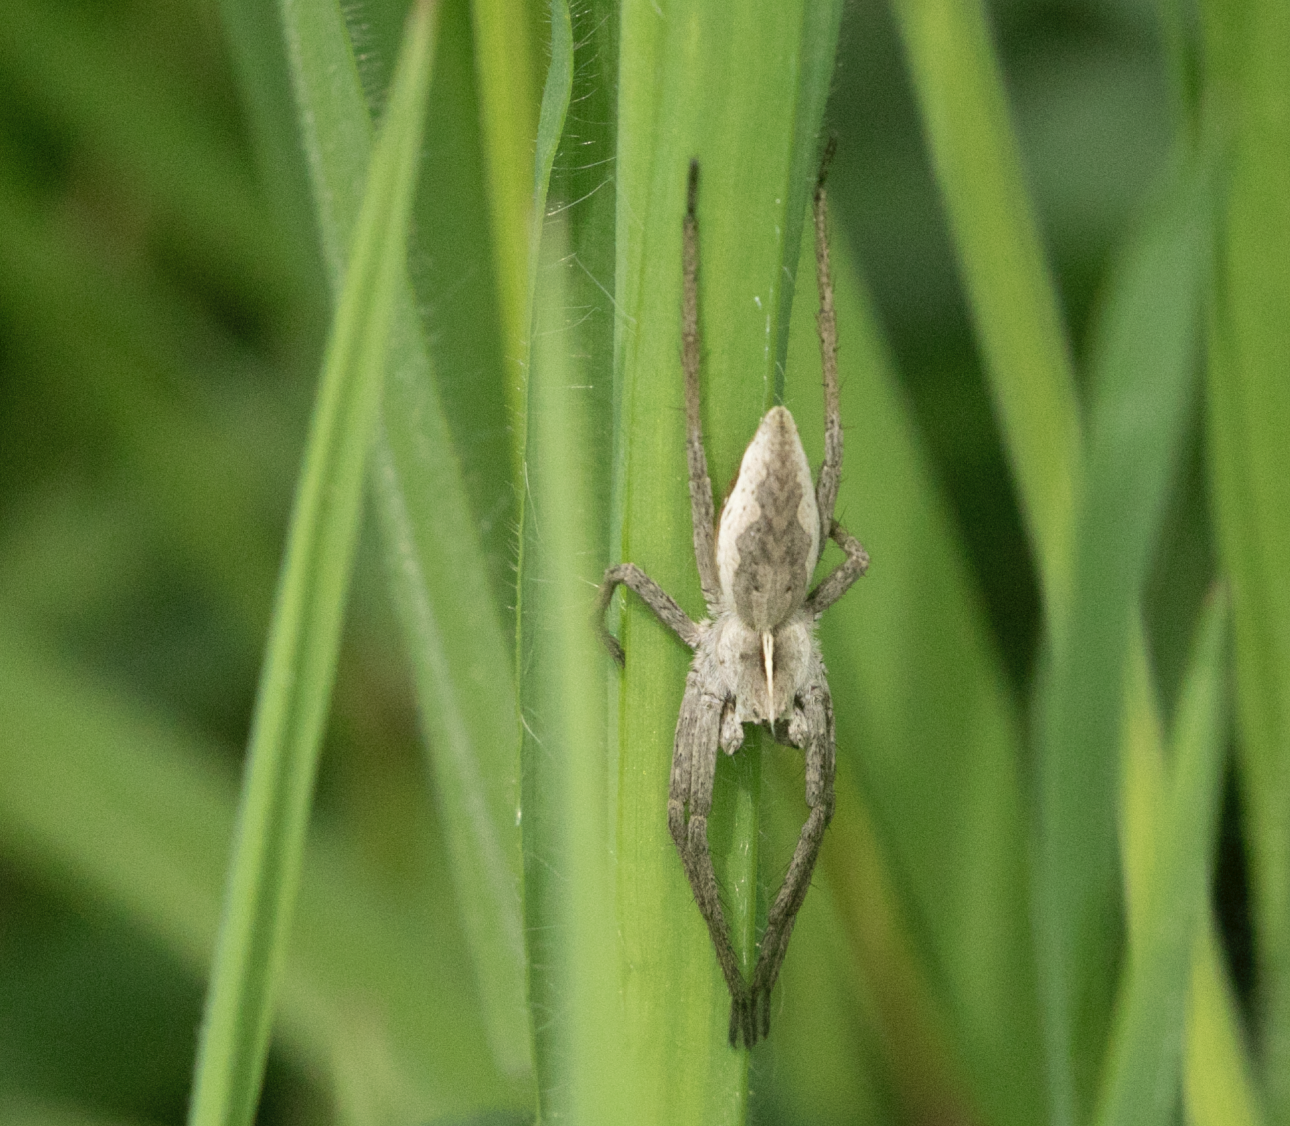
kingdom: Animalia
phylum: Arthropoda
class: Arachnida
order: Araneae
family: Pisauridae
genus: Pisaura
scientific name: Pisaura mirabilis
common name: Tent spider
